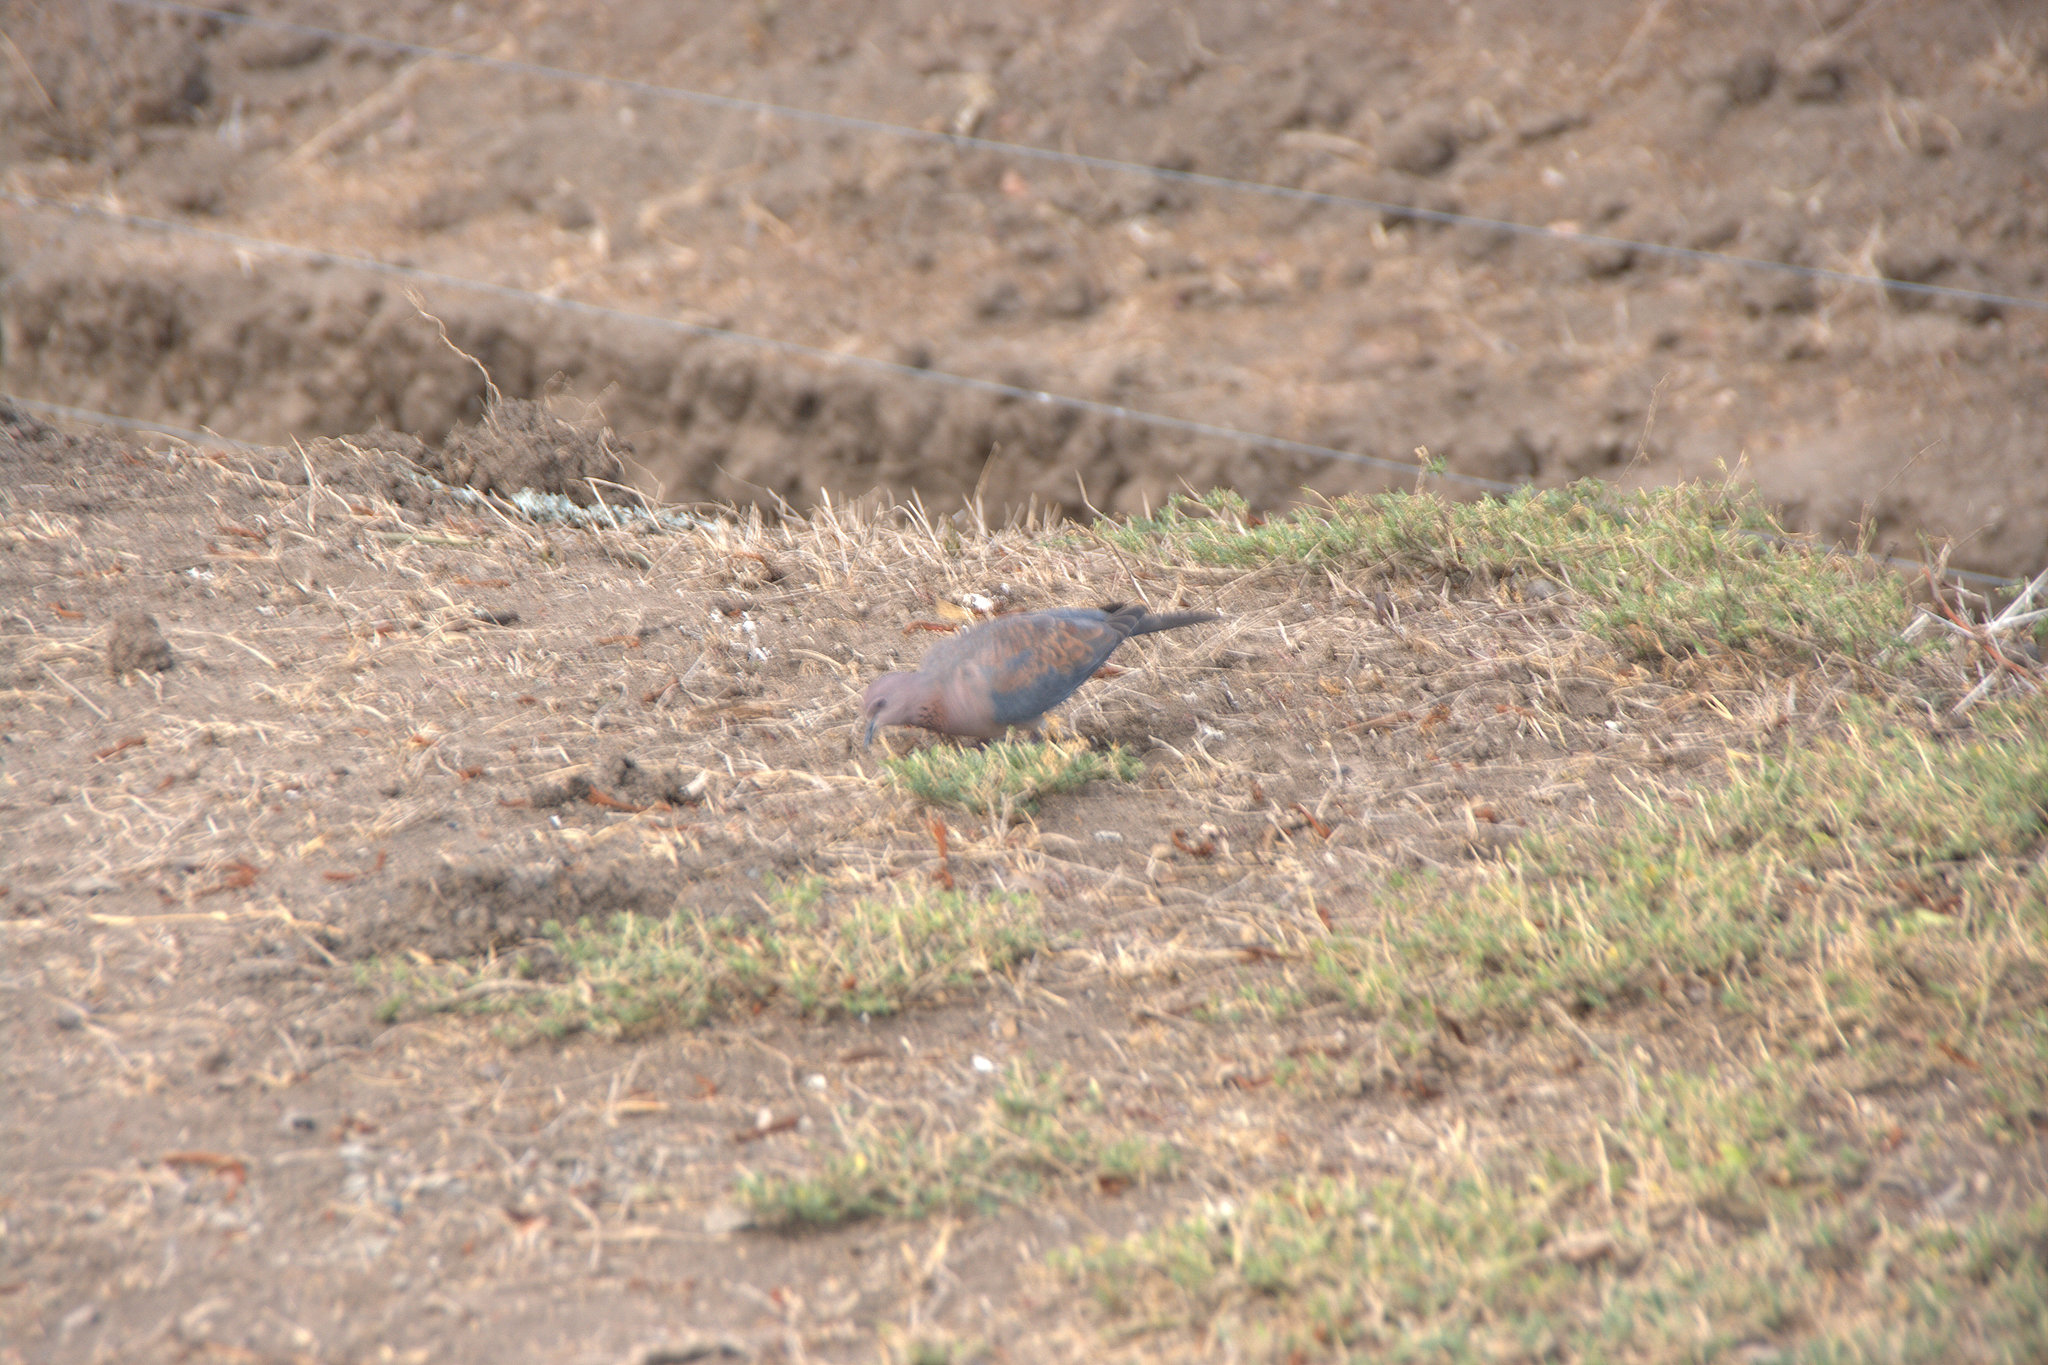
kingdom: Animalia
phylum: Chordata
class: Aves
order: Columbiformes
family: Columbidae
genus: Spilopelia
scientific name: Spilopelia senegalensis
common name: Laughing dove
